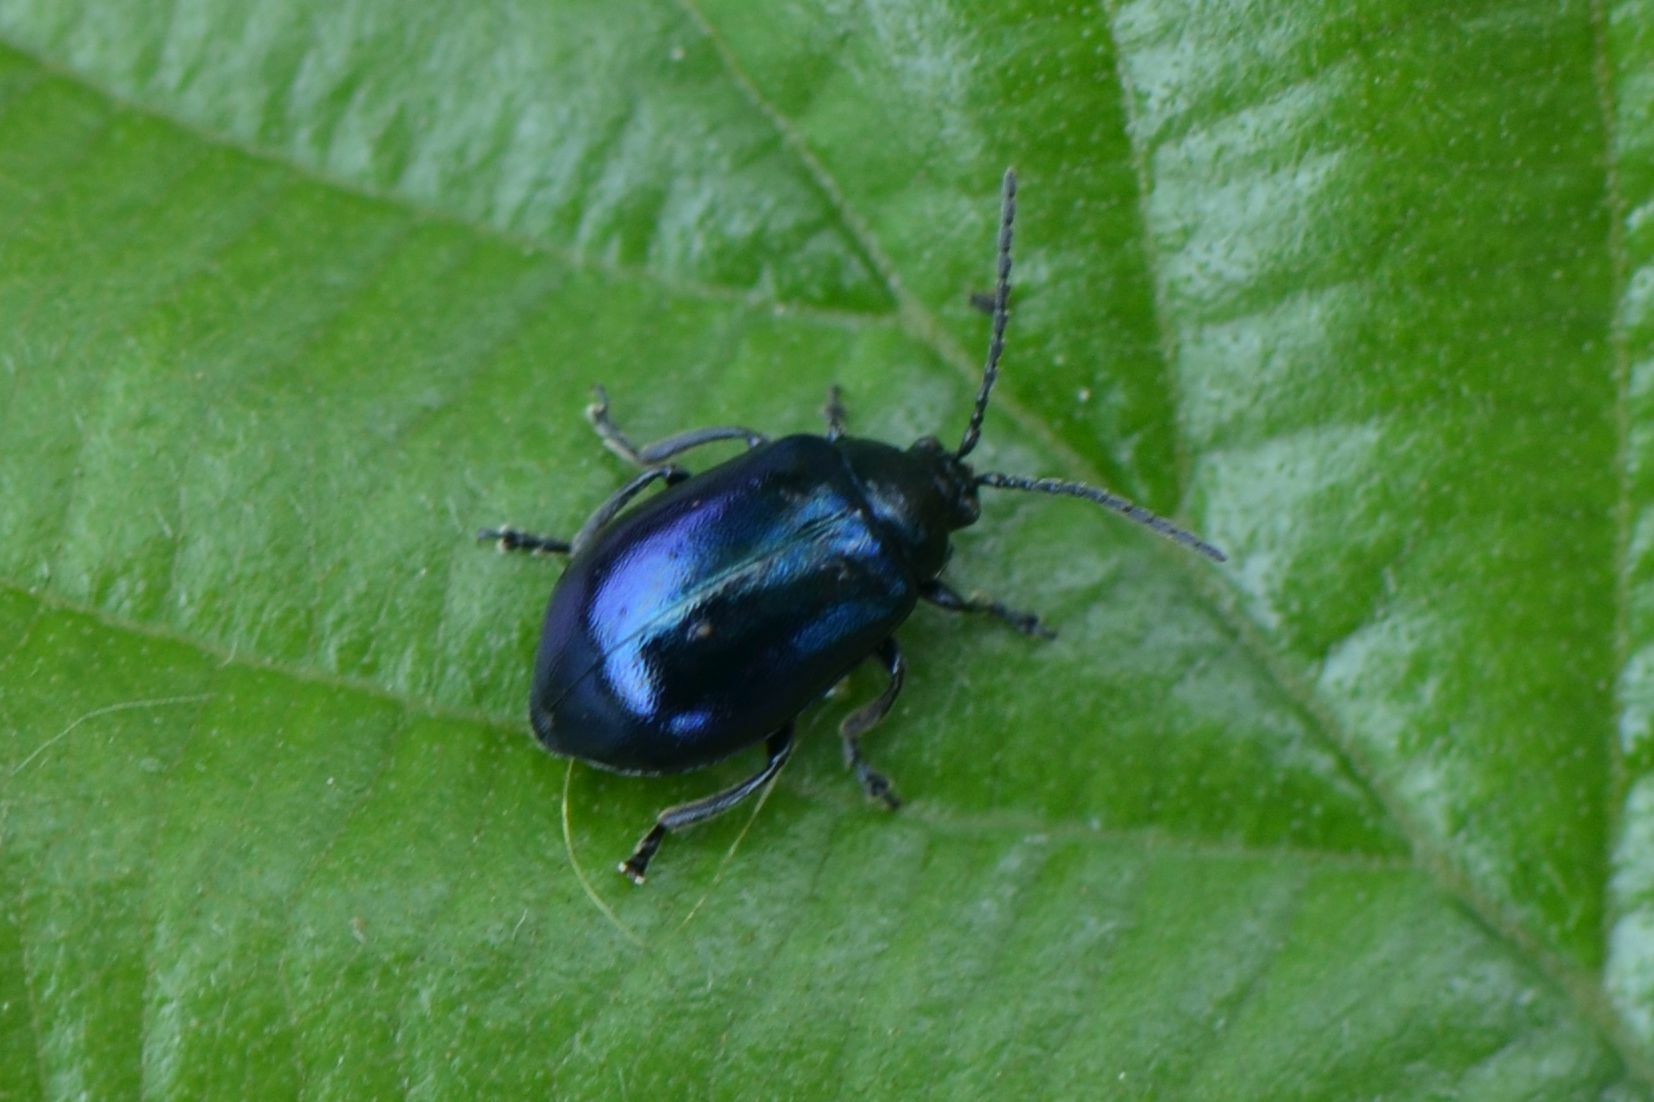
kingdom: Animalia
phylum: Arthropoda
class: Insecta
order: Coleoptera
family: Chrysomelidae
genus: Agelastica
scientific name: Agelastica alni
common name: Alder leaf beetle
